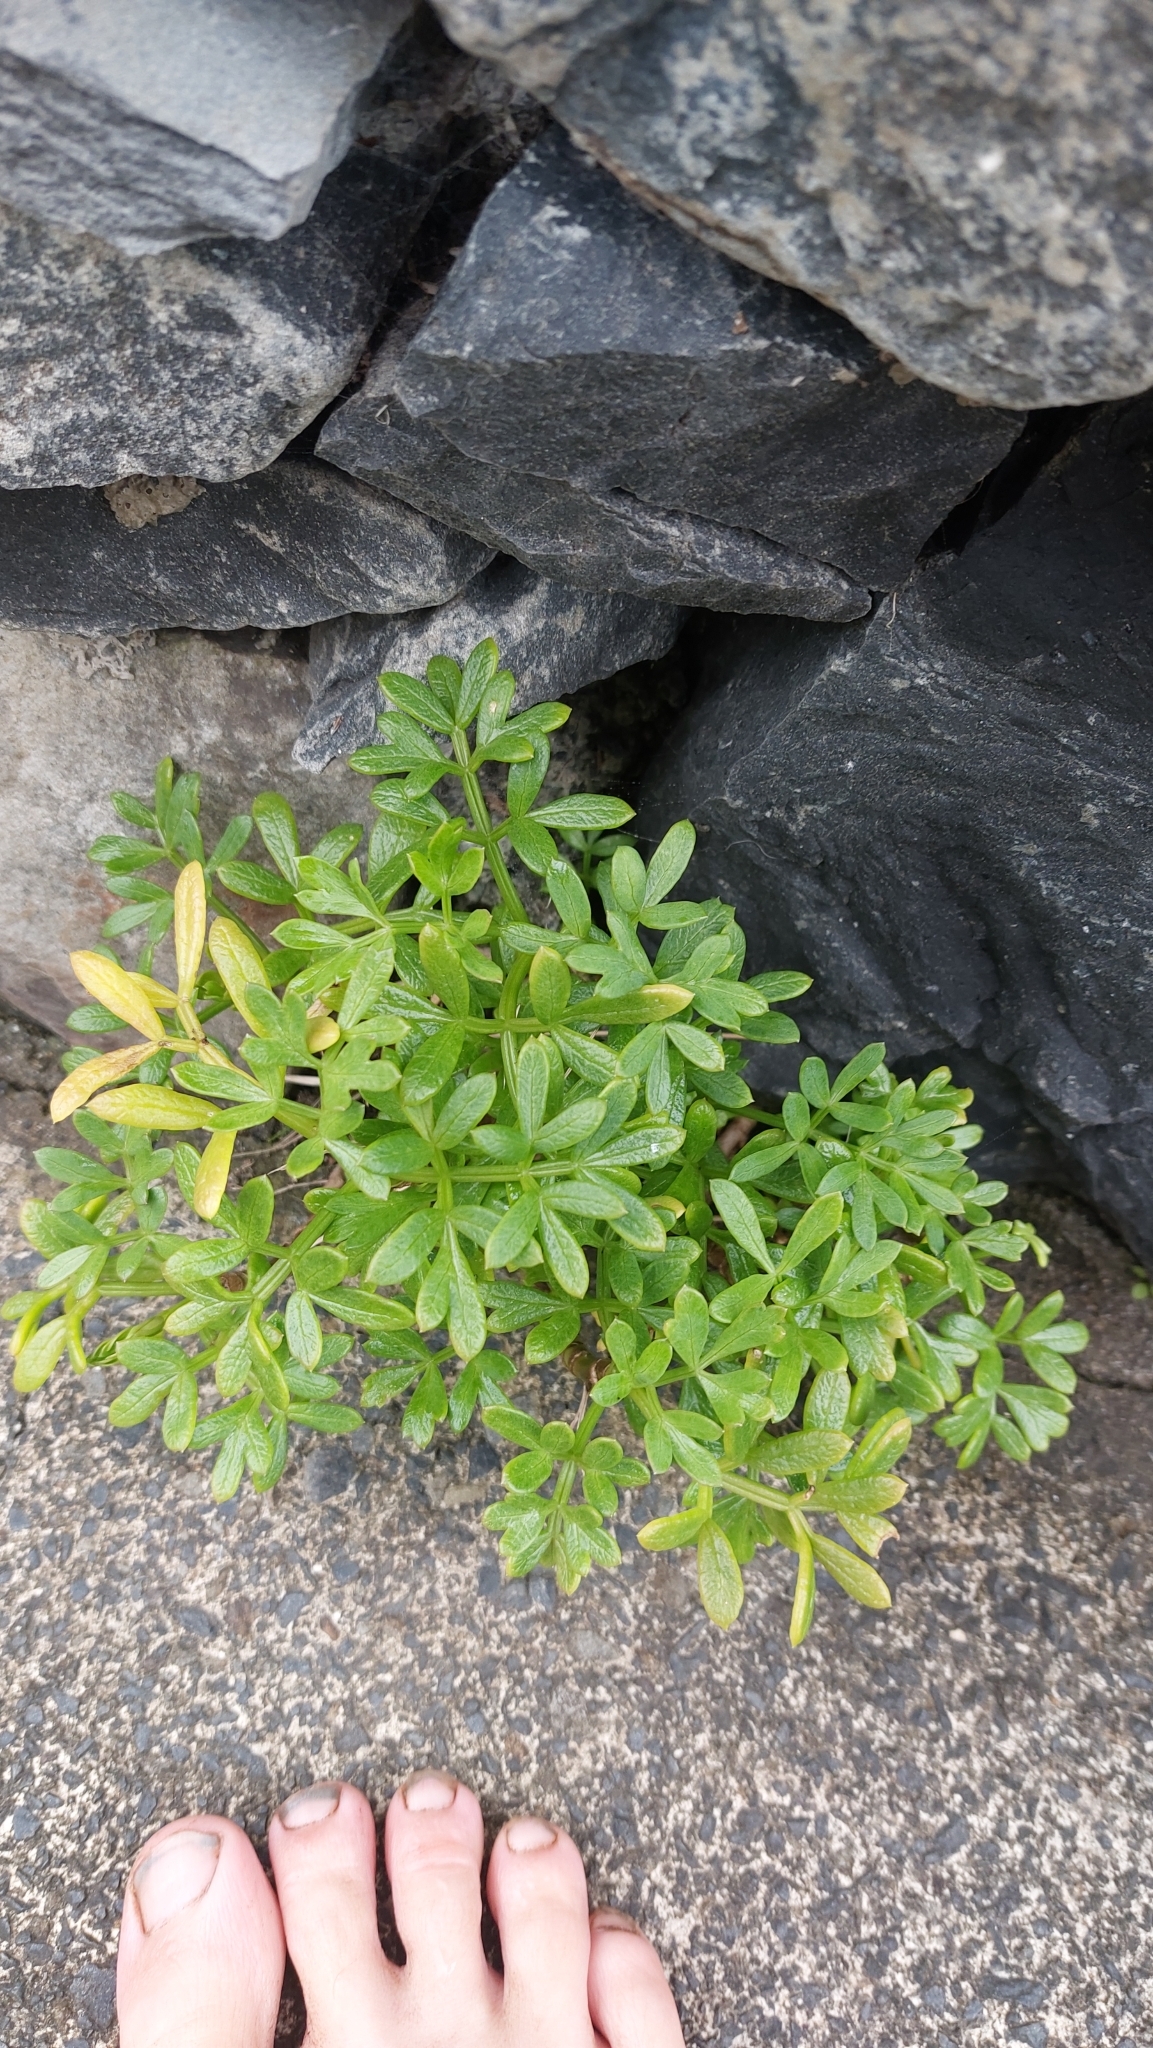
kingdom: Plantae
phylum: Tracheophyta
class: Magnoliopsida
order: Apiales
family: Apiaceae
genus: Crithmum
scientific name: Crithmum maritimum
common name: Rock samphire
